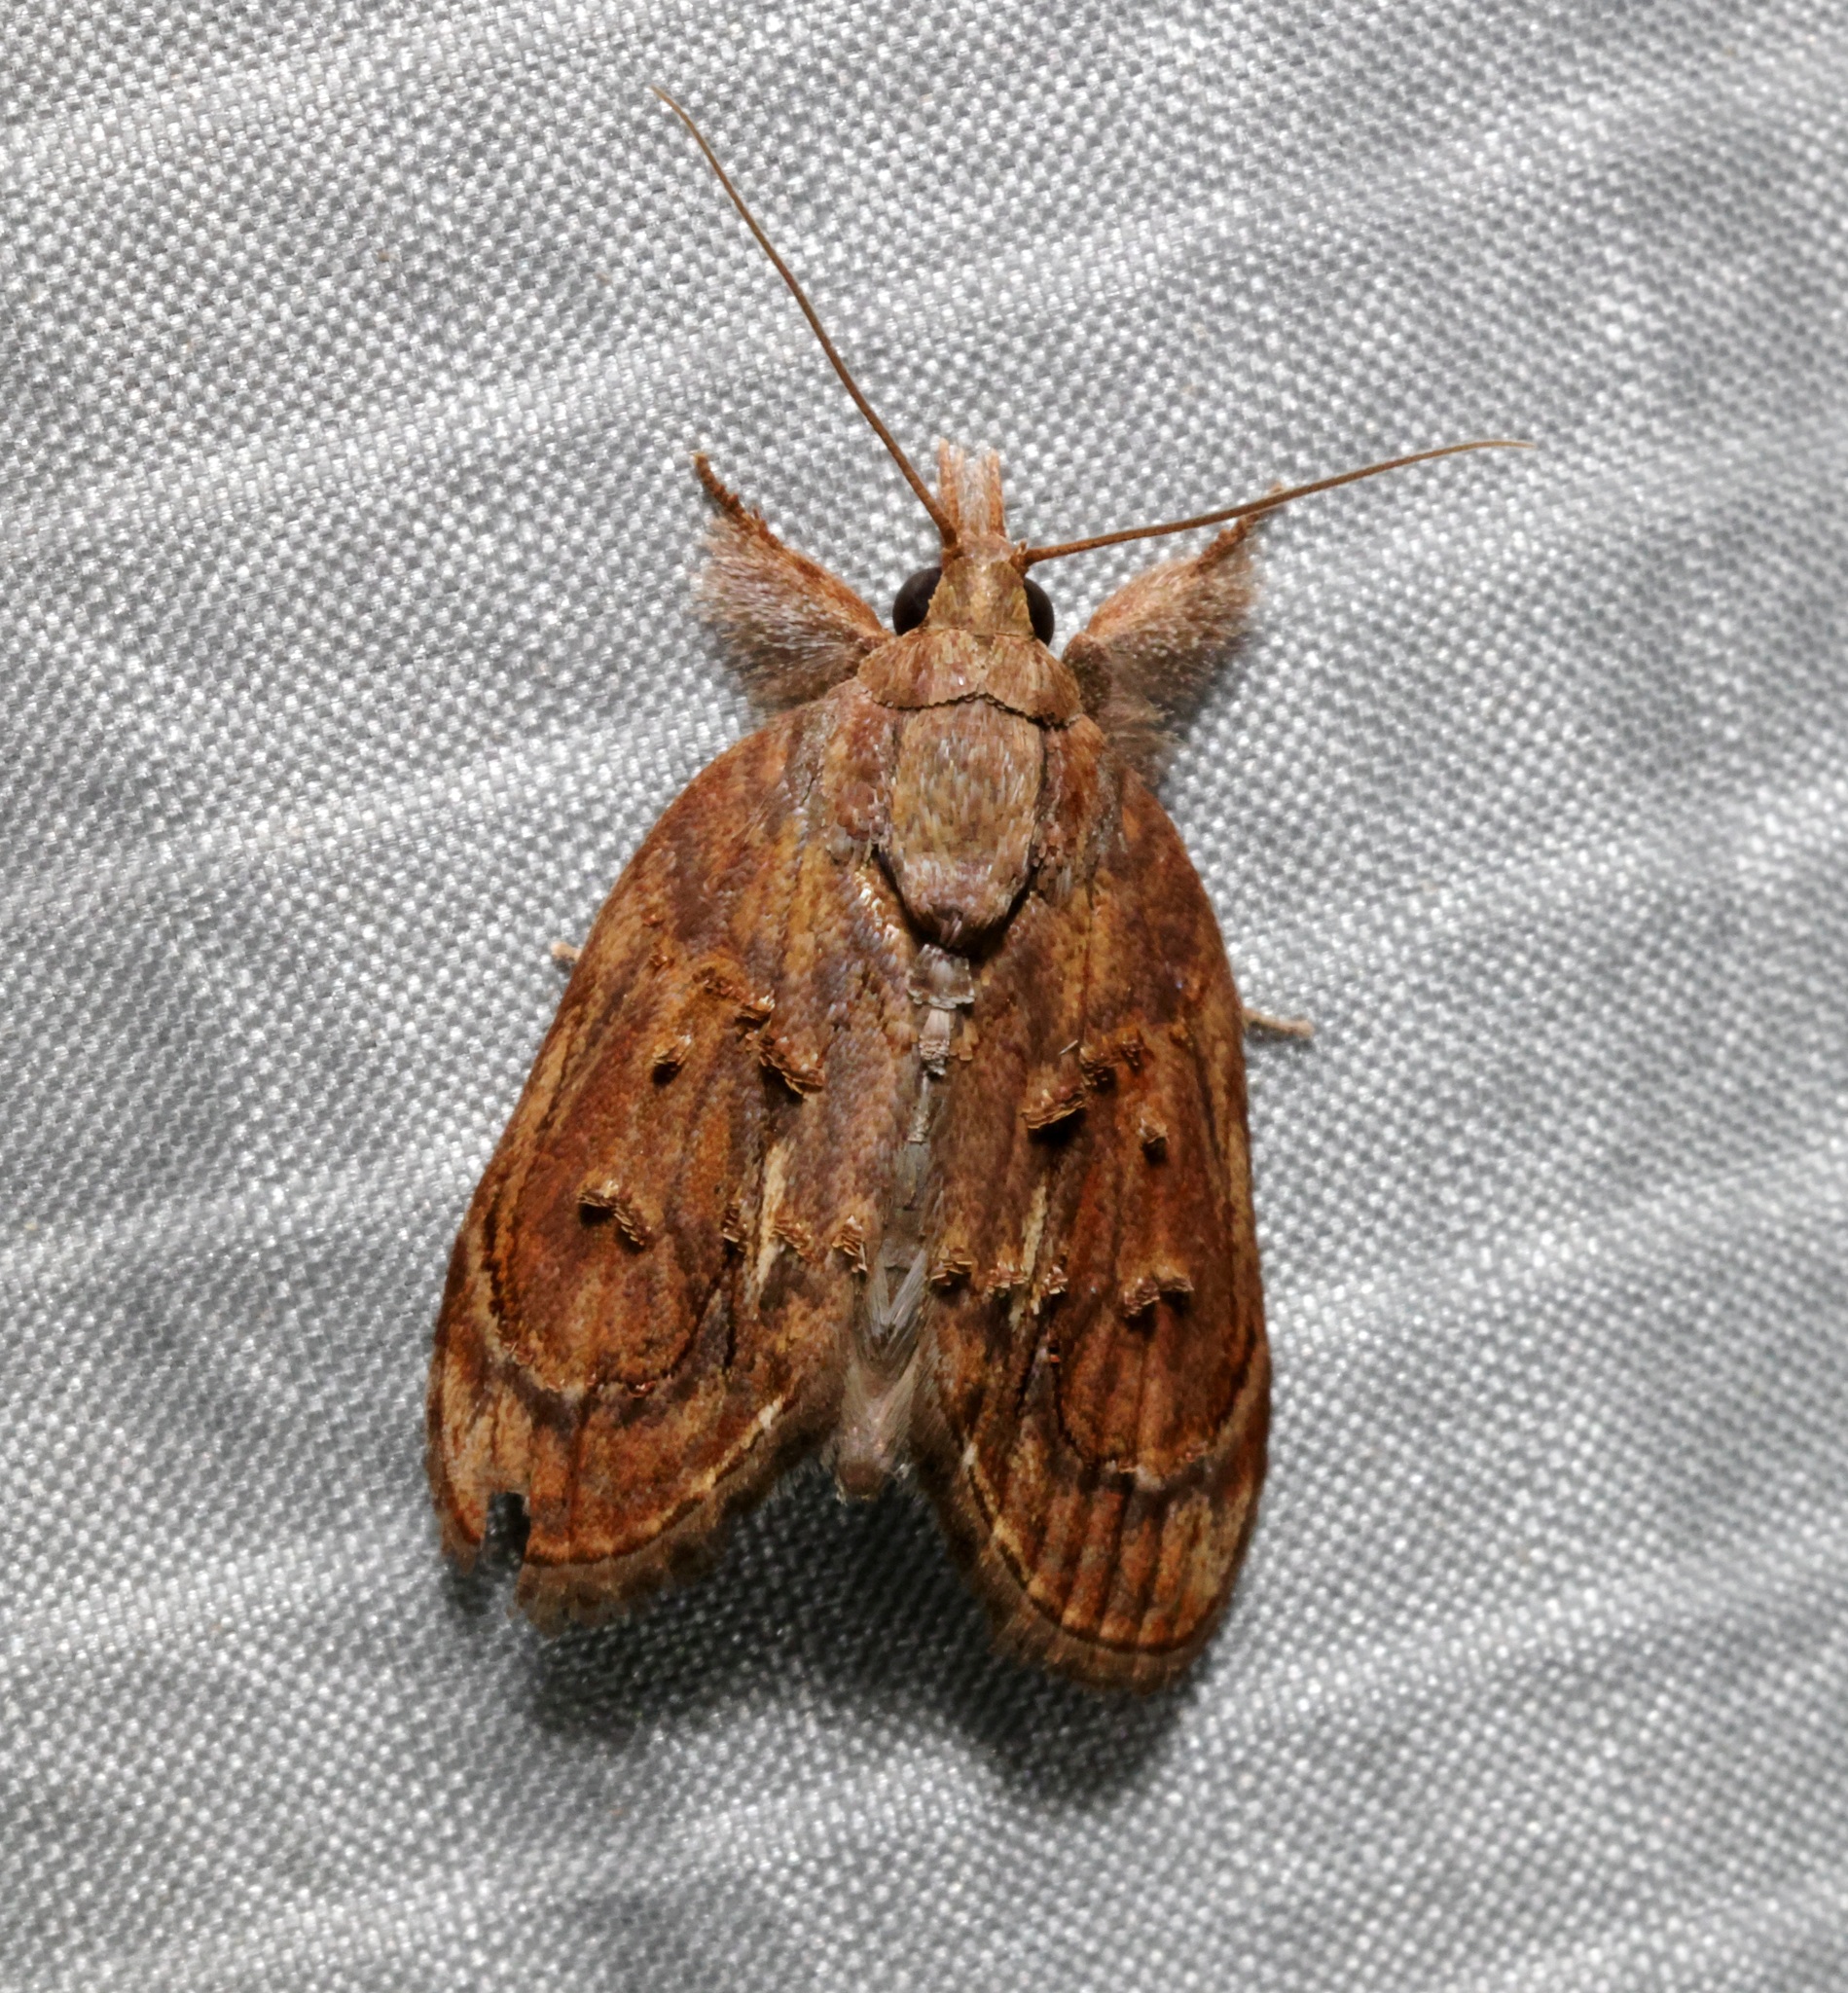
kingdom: Animalia
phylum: Arthropoda
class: Insecta
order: Lepidoptera
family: Nolidae
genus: Selepa
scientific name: Selepa discigera
